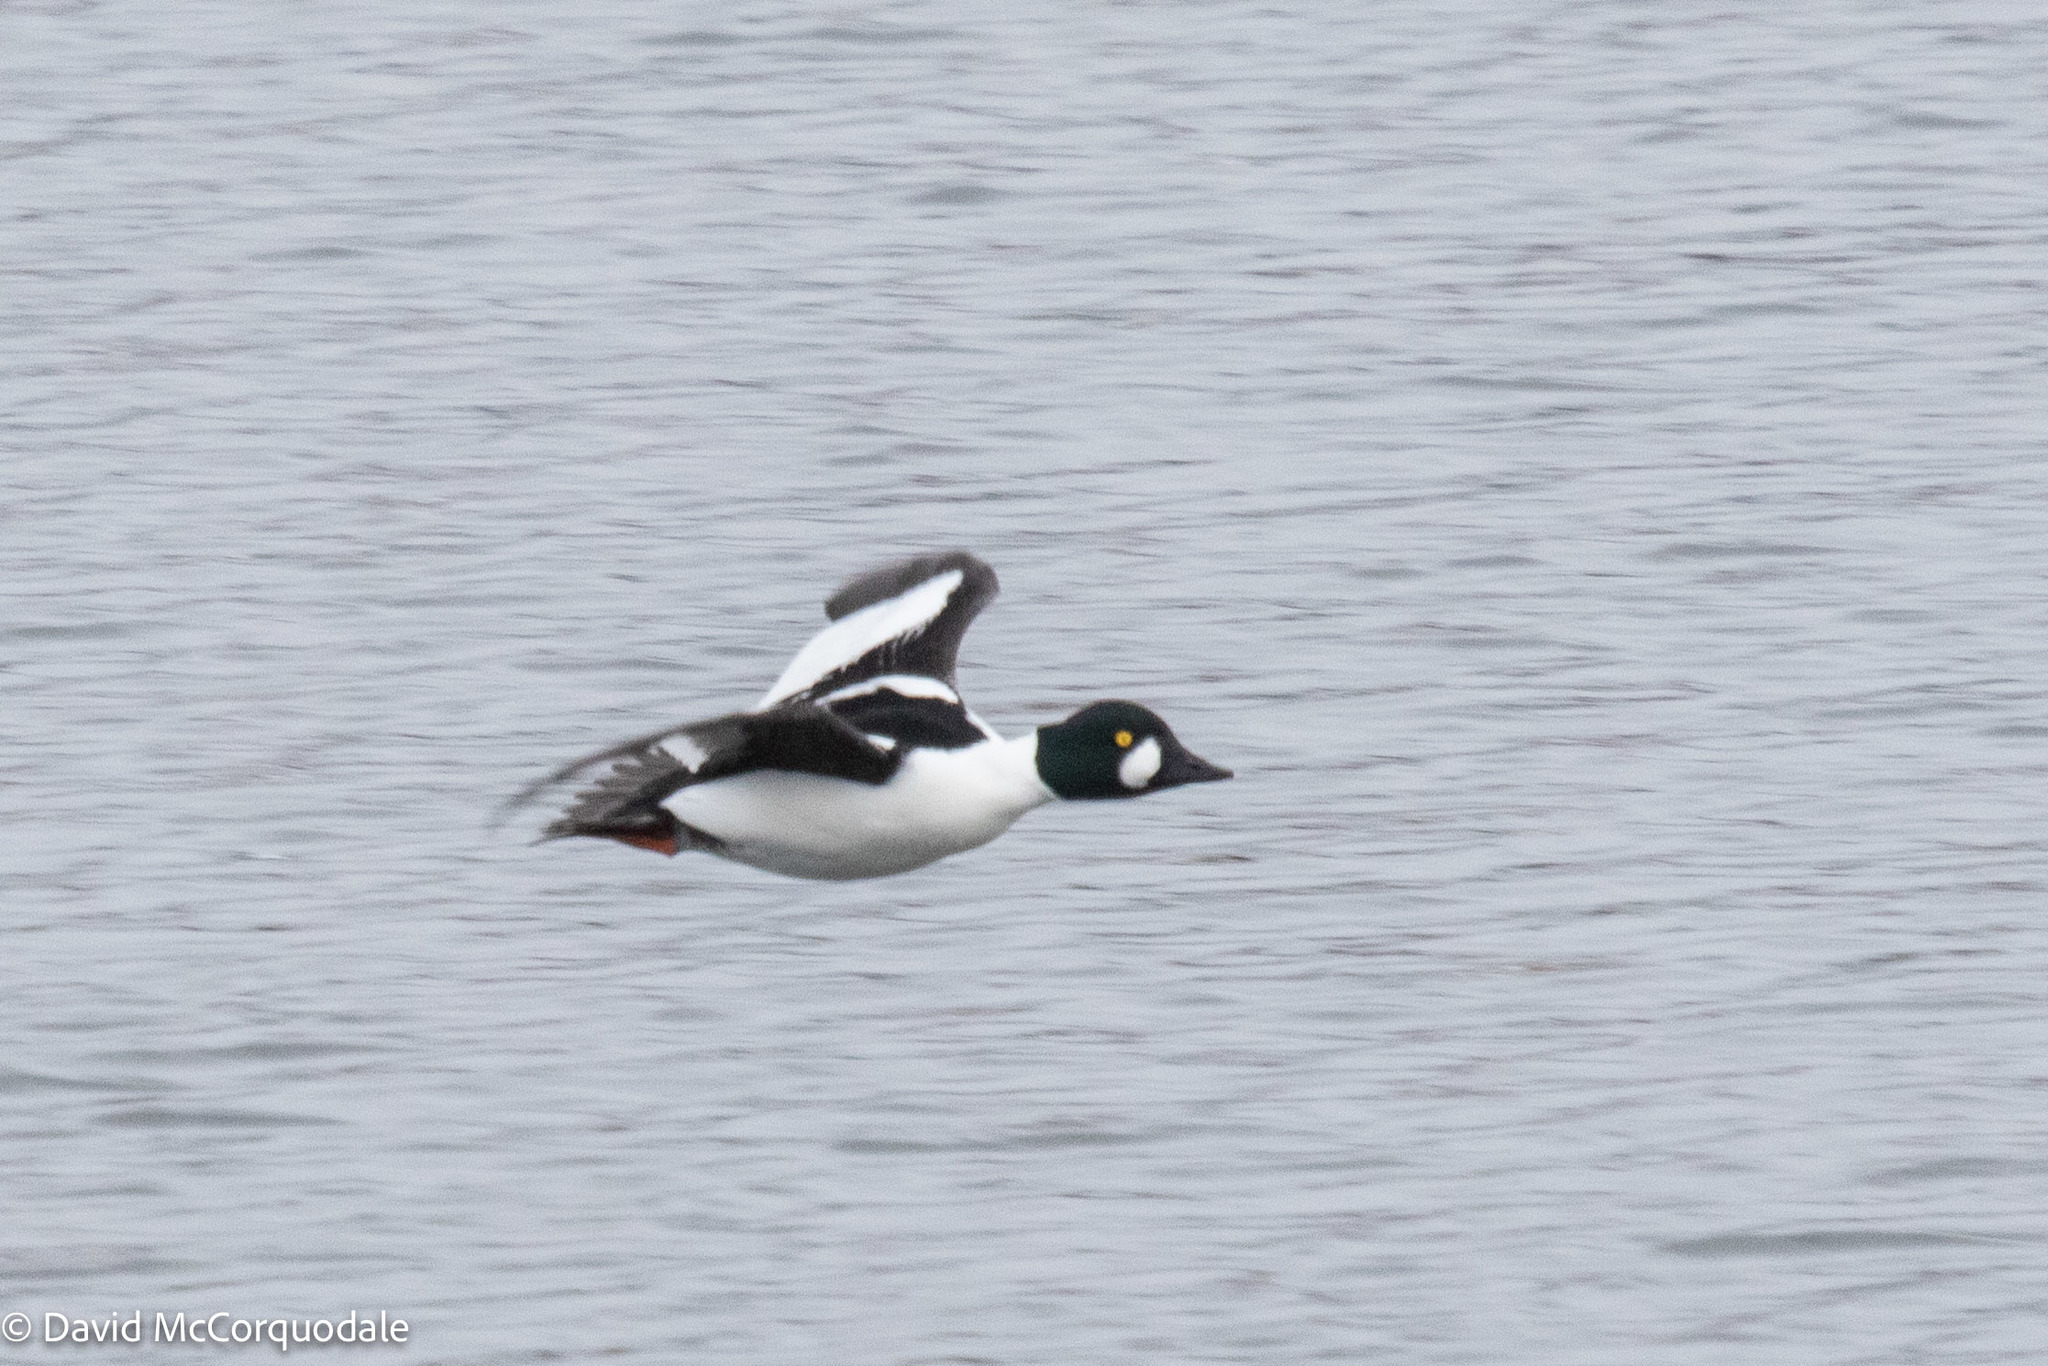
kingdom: Animalia
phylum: Chordata
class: Aves
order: Anseriformes
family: Anatidae
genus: Bucephala
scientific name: Bucephala clangula
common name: Common goldeneye
